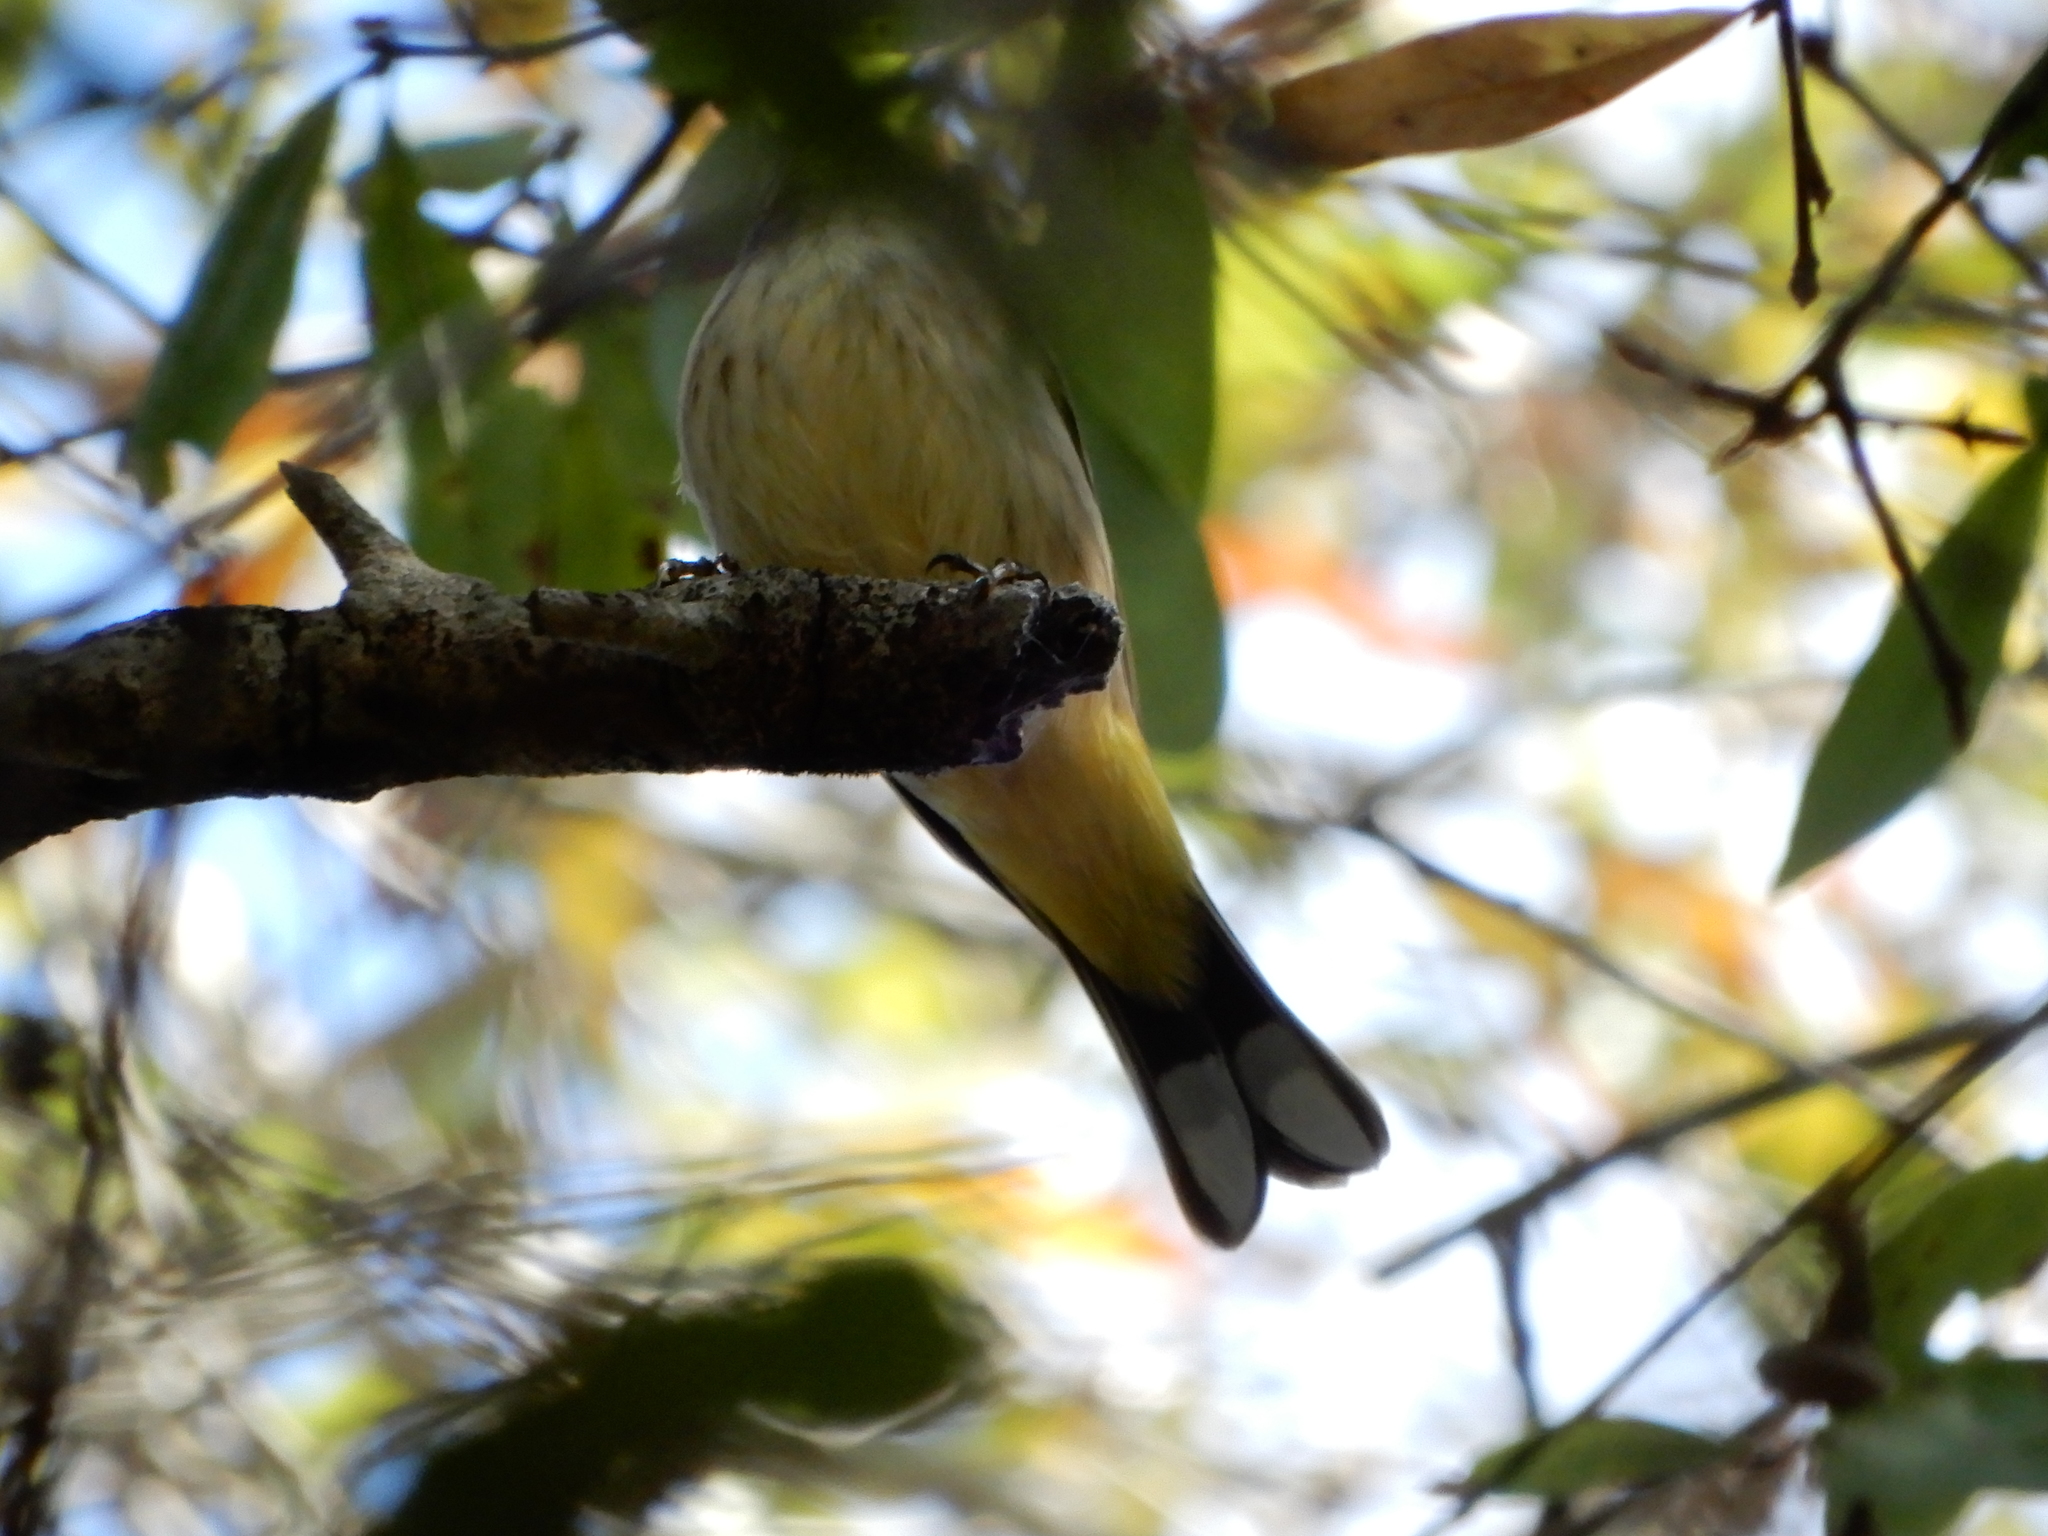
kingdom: Animalia
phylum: Chordata
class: Aves
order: Passeriformes
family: Parulidae
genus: Setophaga
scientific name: Setophaga palmarum
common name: Palm warbler
